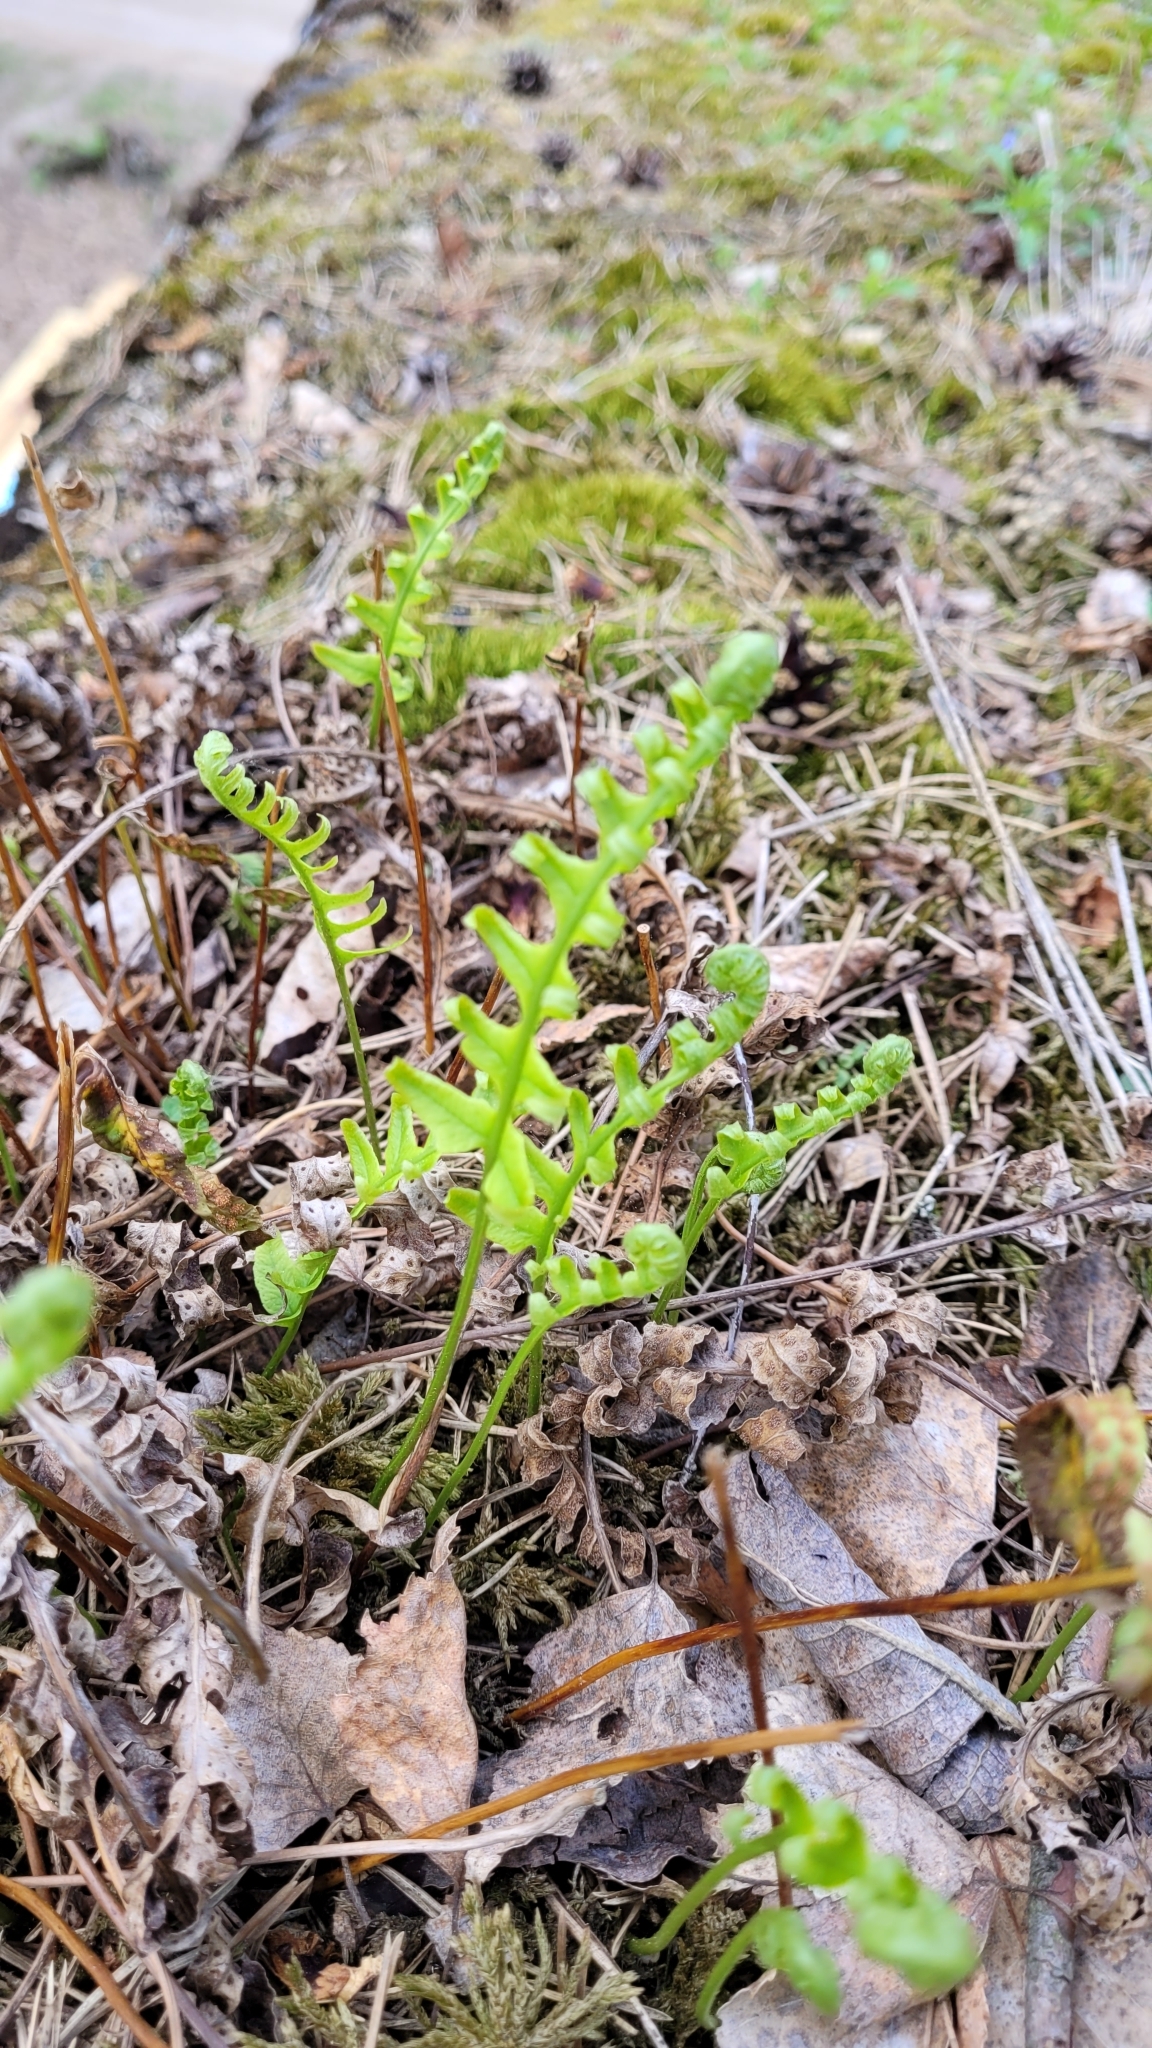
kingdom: Plantae
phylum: Tracheophyta
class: Polypodiopsida
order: Polypodiales
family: Polypodiaceae
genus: Polypodium
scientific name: Polypodium vulgare
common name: Common polypody
